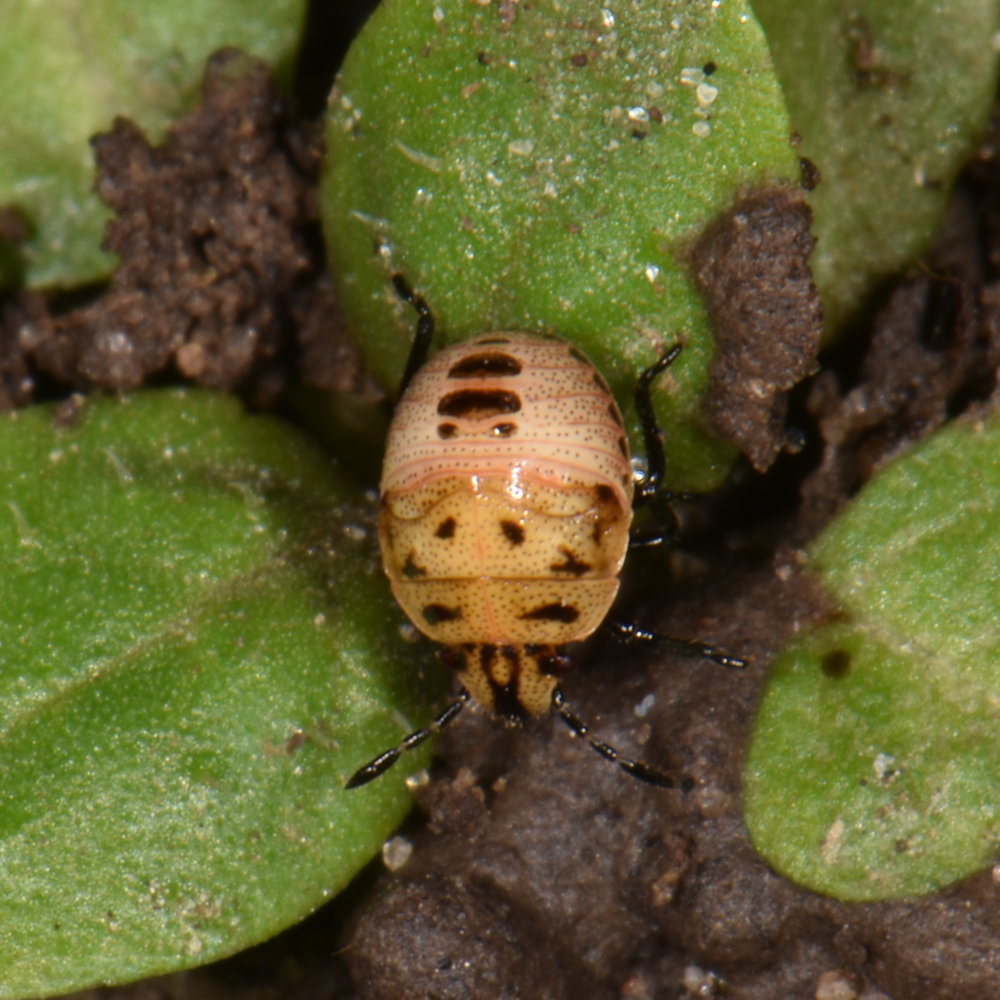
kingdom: Animalia
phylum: Arthropoda
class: Insecta
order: Hemiptera
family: Pentatomidae
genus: Cosmopepla
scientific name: Cosmopepla lintneriana
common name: Twice-stabbed stink bug
